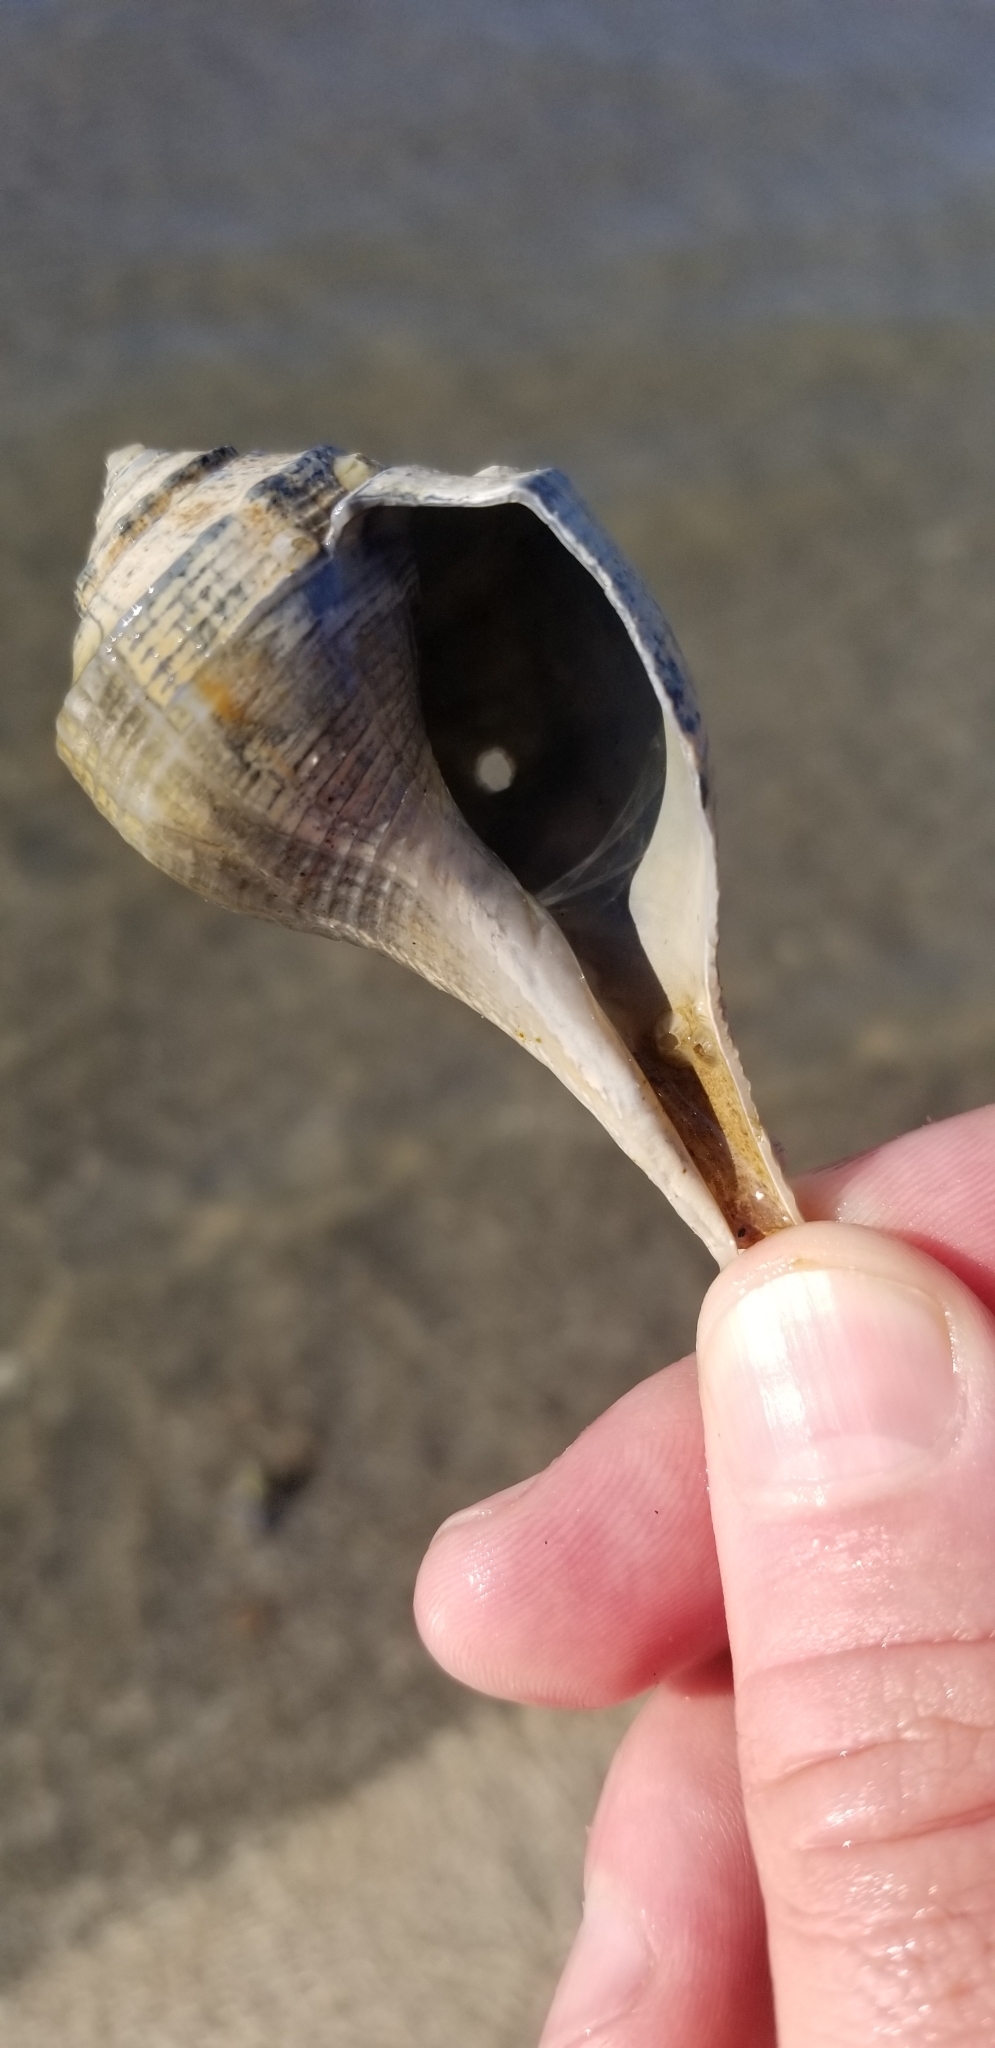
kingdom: Animalia
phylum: Mollusca
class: Gastropoda
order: Neogastropoda
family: Busyconidae
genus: Fulguropsis
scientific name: Fulguropsis plagosa
